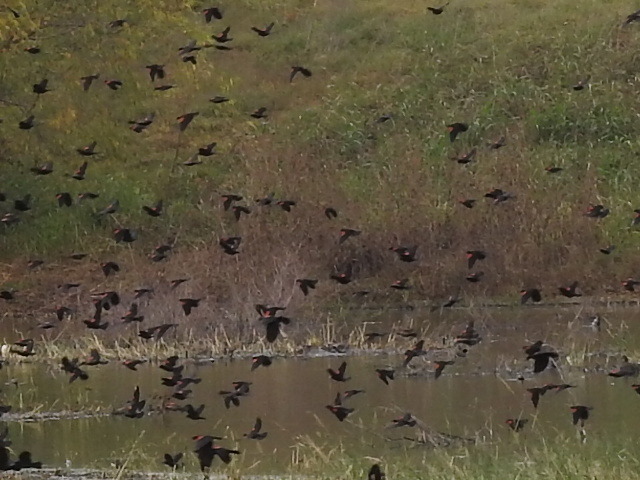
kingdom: Animalia
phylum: Chordata
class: Aves
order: Passeriformes
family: Icteridae
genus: Agelaius
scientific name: Agelaius phoeniceus
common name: Red-winged blackbird
